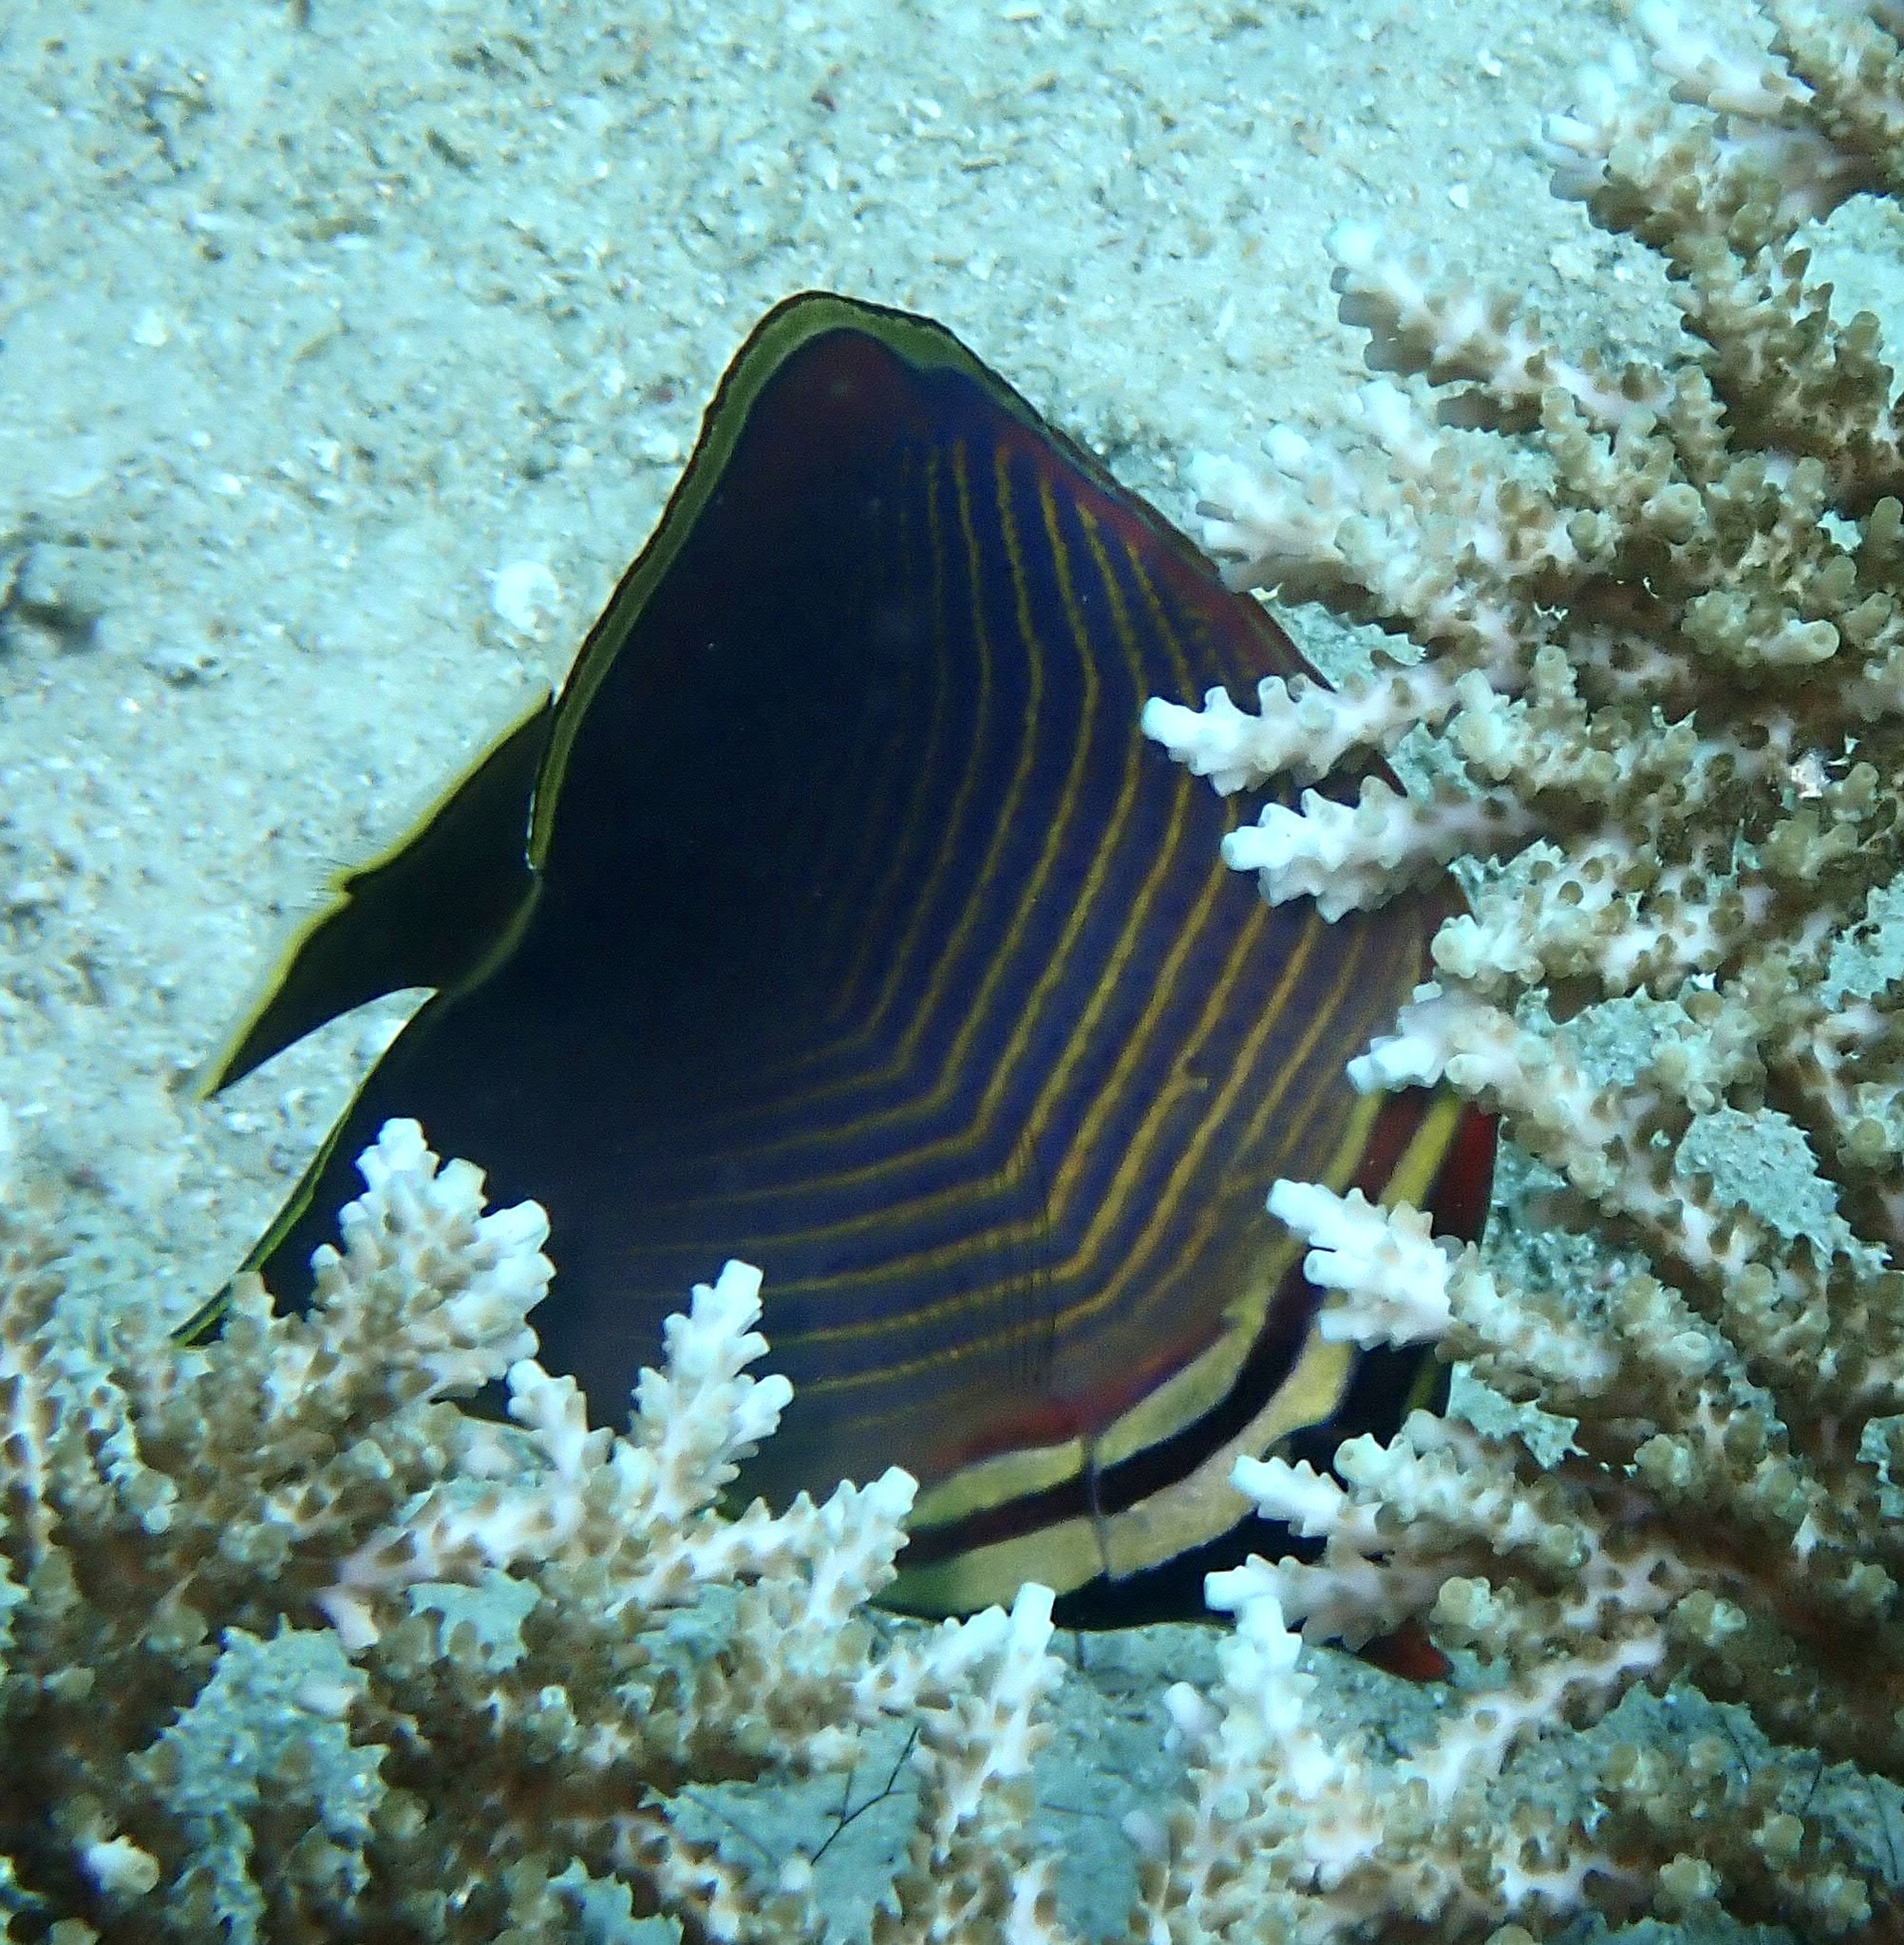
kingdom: Animalia
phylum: Chordata
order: Perciformes
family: Chaetodontidae
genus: Chaetodon
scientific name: Chaetodon baronessa
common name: Triangular butterflyfish
